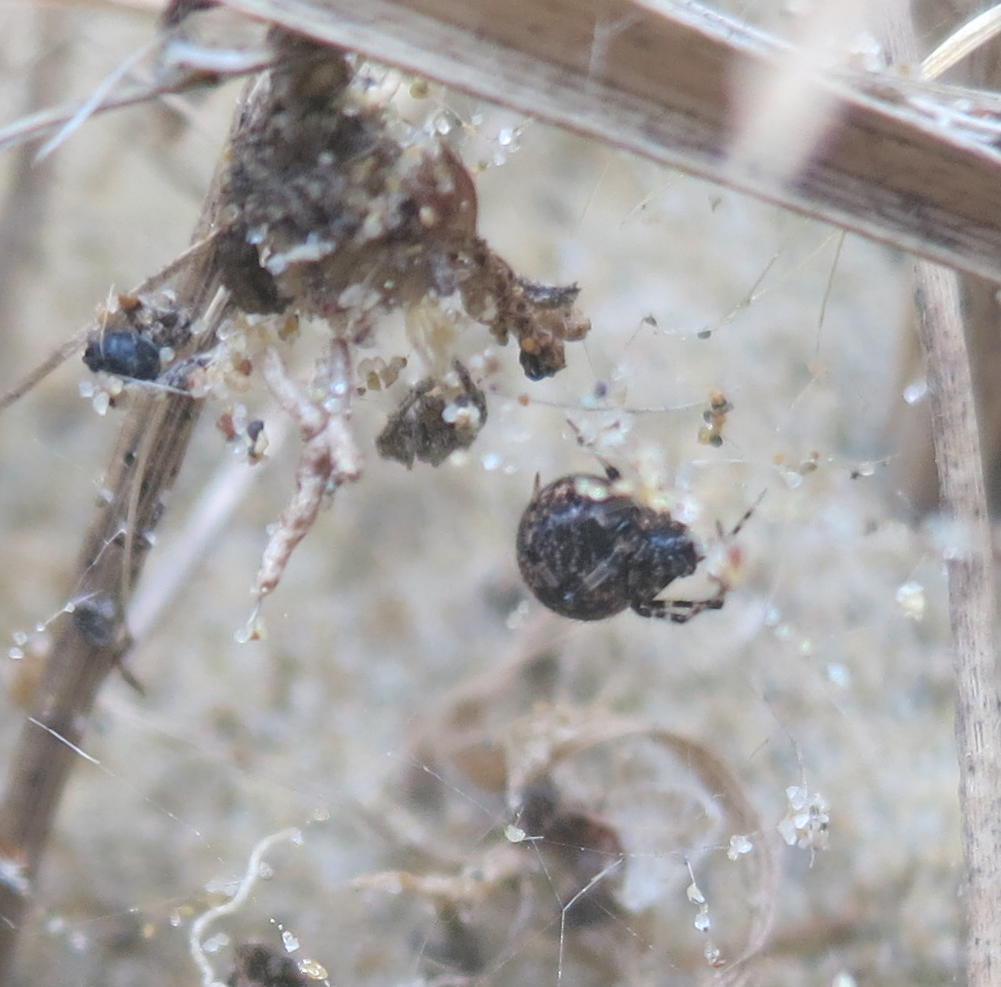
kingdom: Animalia
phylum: Arthropoda
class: Arachnida
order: Araneae
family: Theridiidae
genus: Cryptachaea
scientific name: Cryptachaea blattea
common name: Theridiid spider
